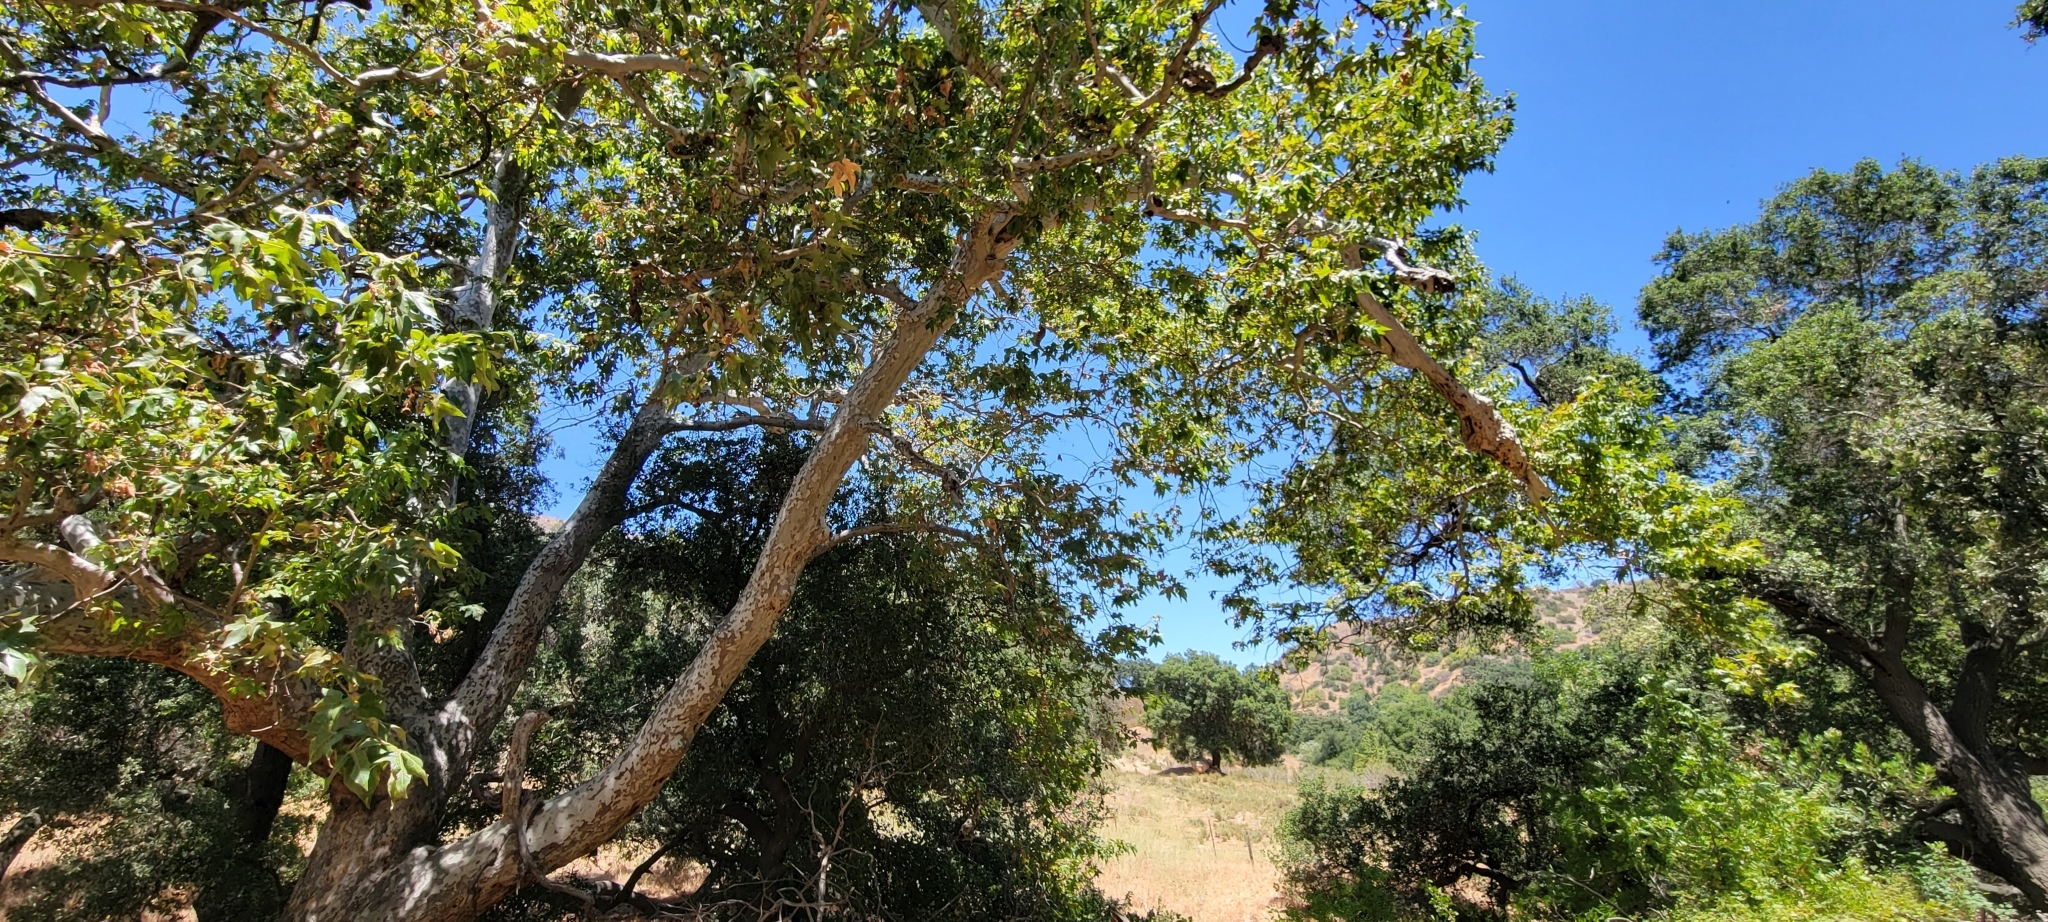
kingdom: Plantae
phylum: Tracheophyta
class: Magnoliopsida
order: Proteales
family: Platanaceae
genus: Platanus
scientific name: Platanus racemosa
